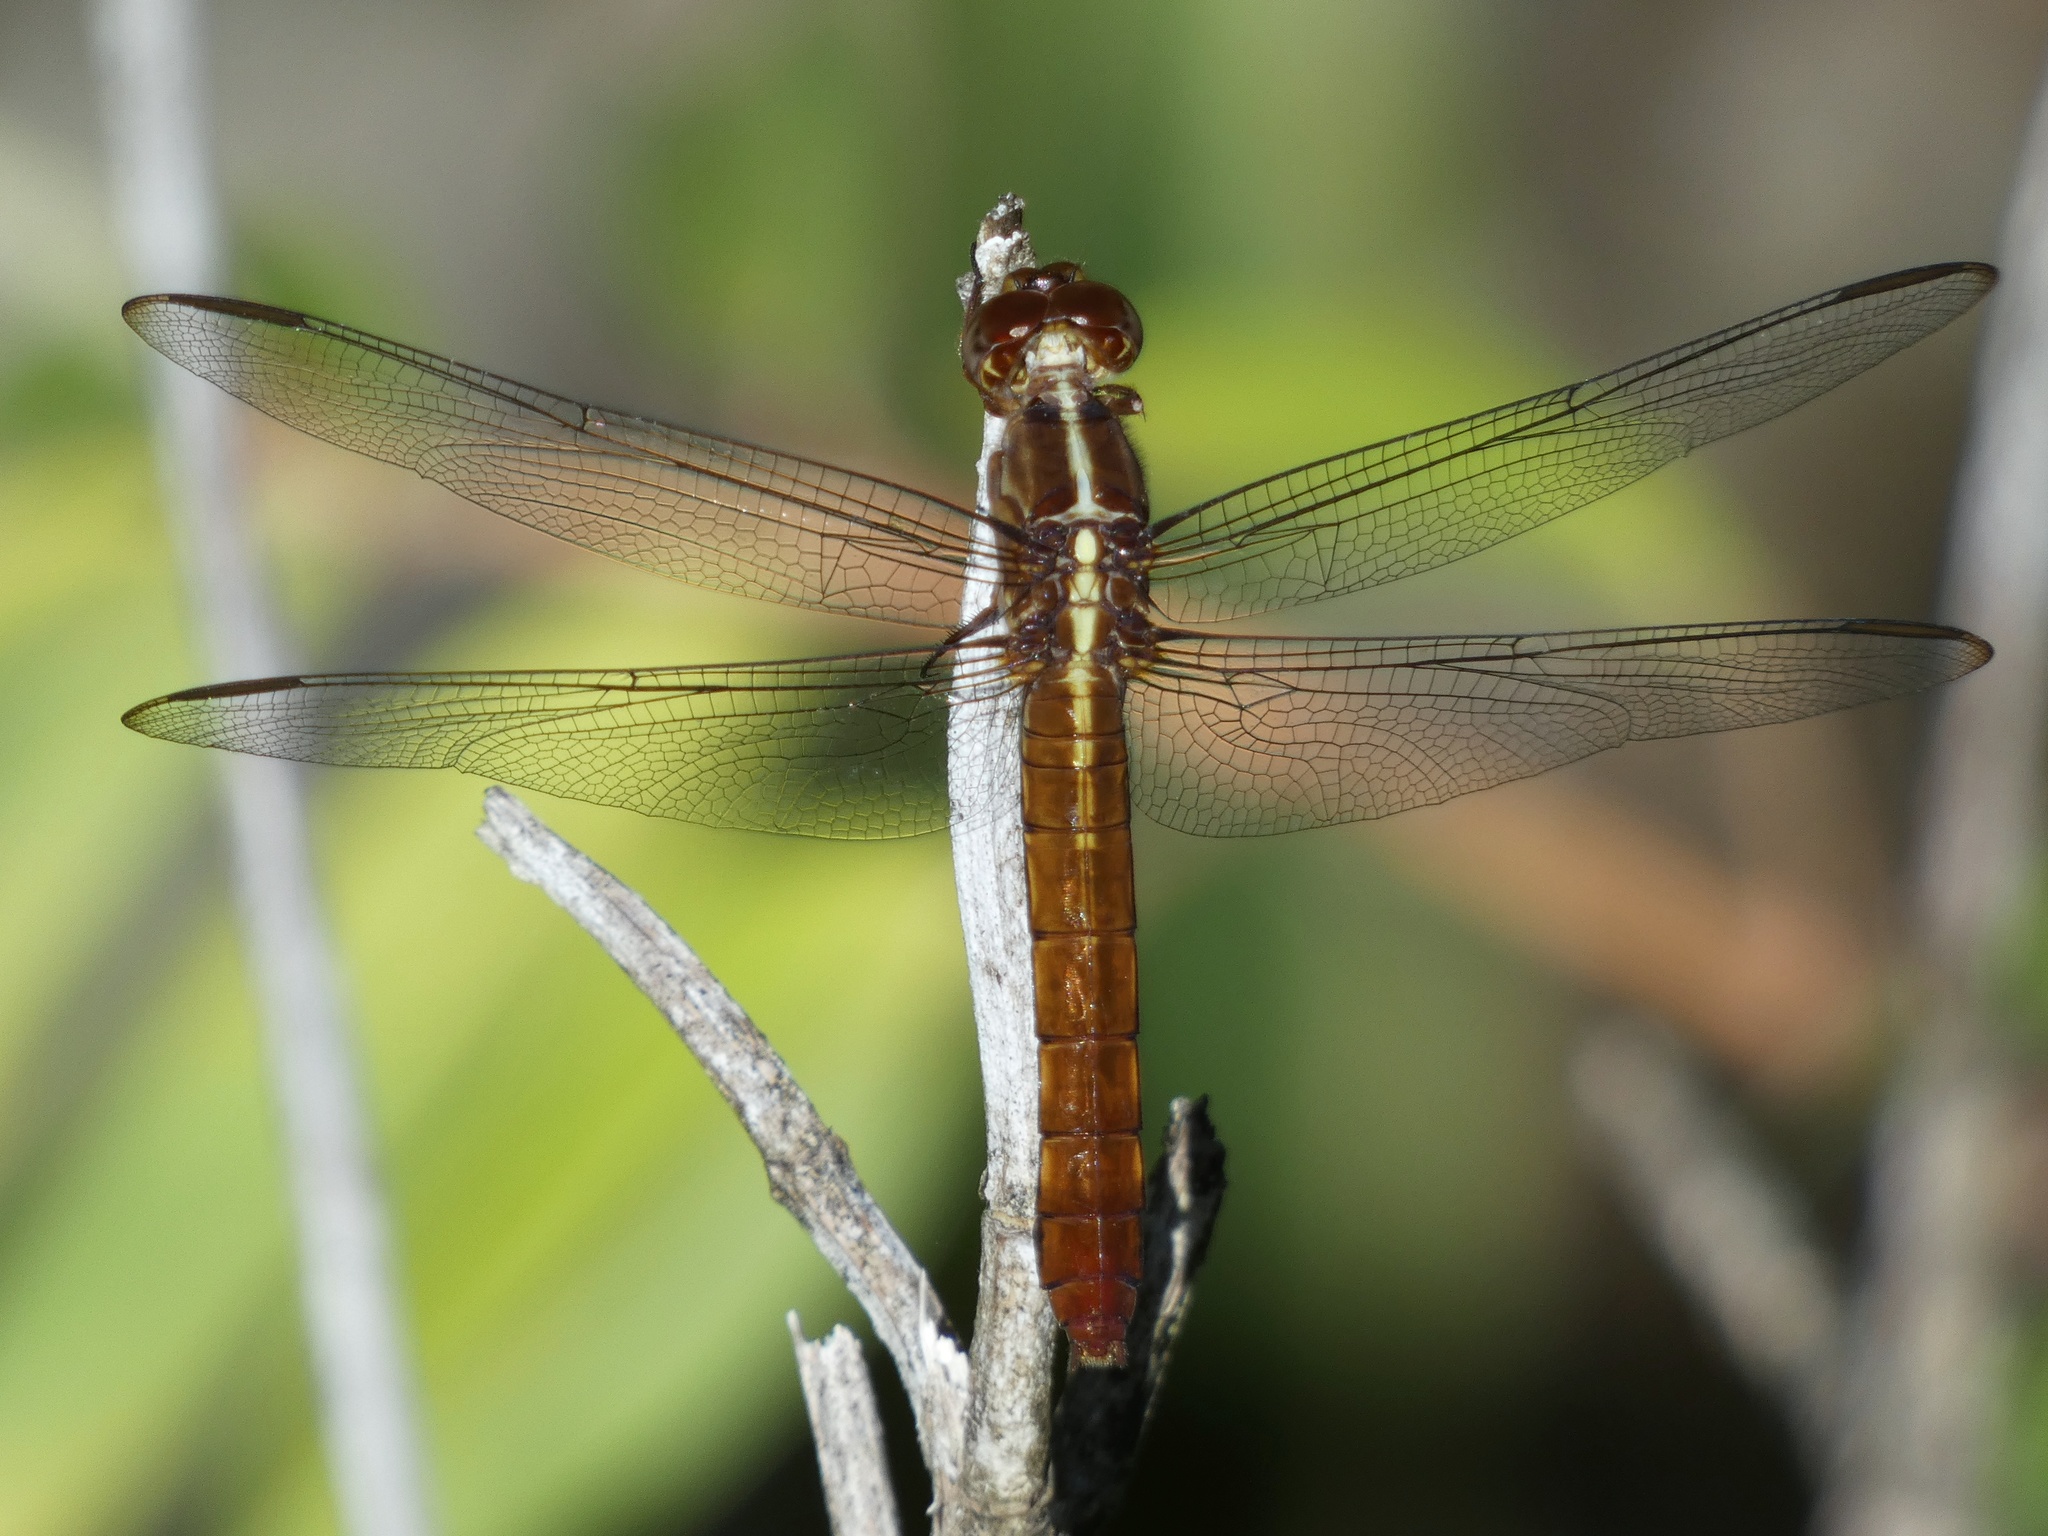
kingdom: Animalia
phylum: Arthropoda
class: Insecta
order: Odonata
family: Libellulidae
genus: Orthemis
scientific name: Orthemis discolor
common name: Carmine skimmer
